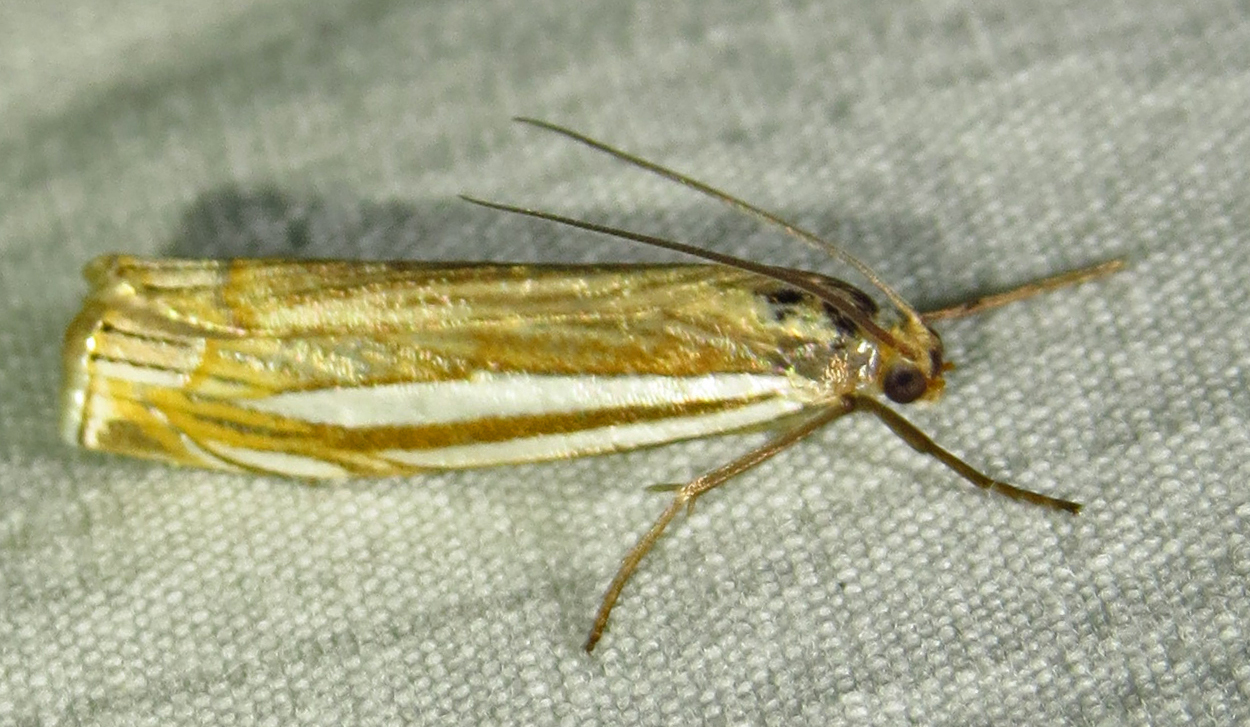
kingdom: Animalia
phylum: Arthropoda
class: Insecta
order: Lepidoptera
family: Crambidae
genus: Crambus
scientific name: Crambus laqueatellus
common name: Eastern grass-veneer
